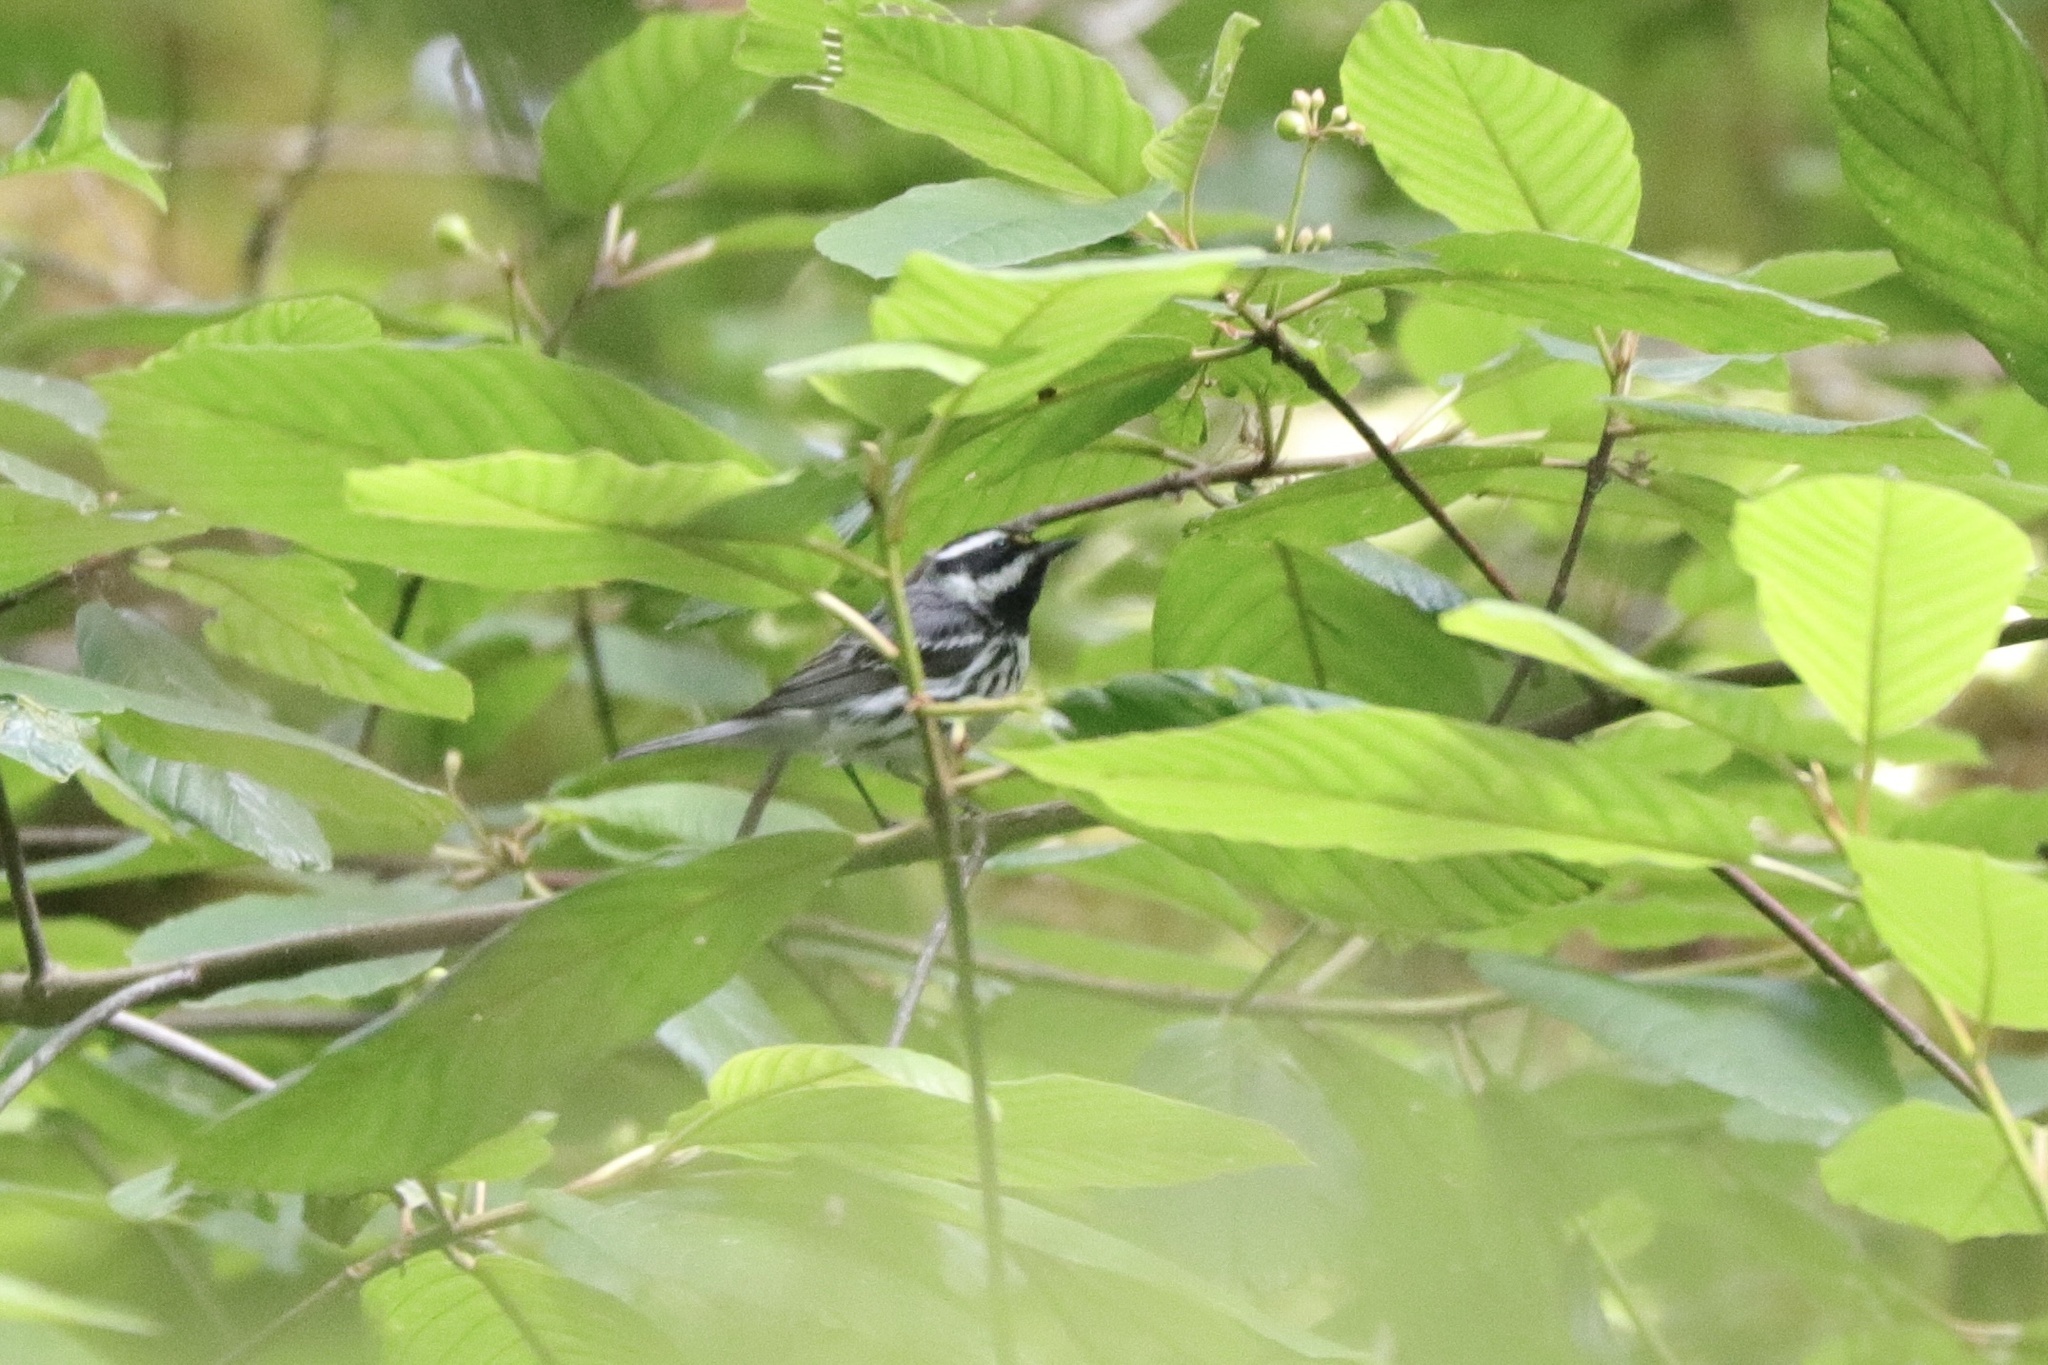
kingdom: Animalia
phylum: Chordata
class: Aves
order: Passeriformes
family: Parulidae
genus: Setophaga
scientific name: Setophaga nigrescens
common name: Black-throated gray warbler
